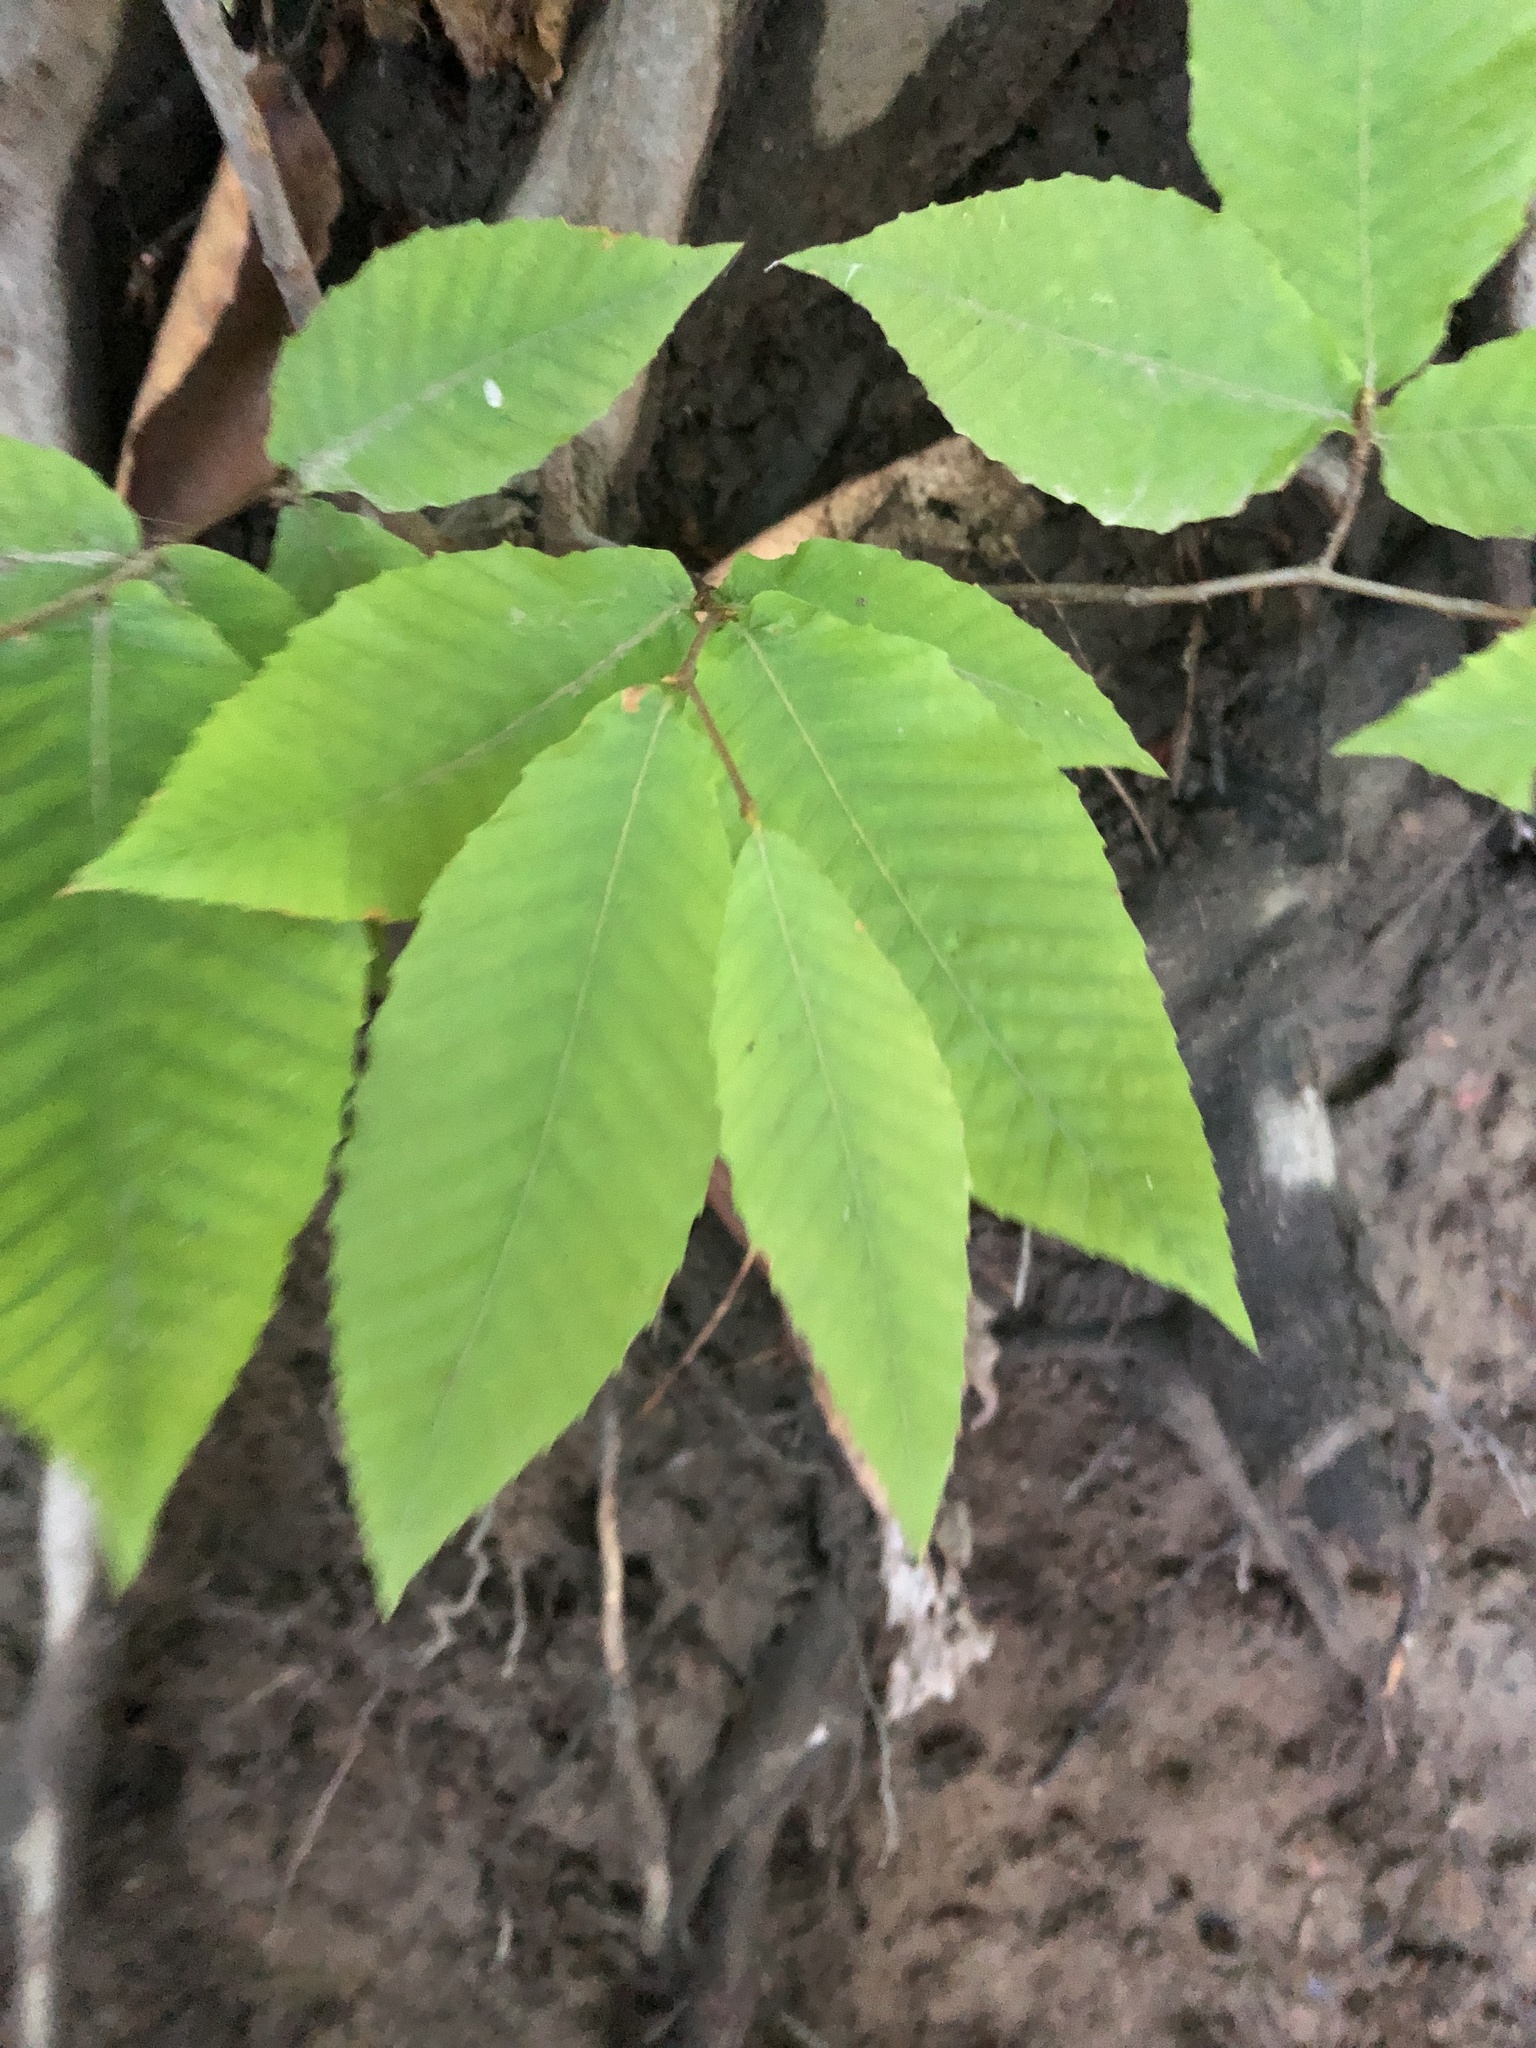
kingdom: Plantae
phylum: Tracheophyta
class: Magnoliopsida
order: Fagales
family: Fagaceae
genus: Fagus
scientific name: Fagus grandifolia
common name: American beech
